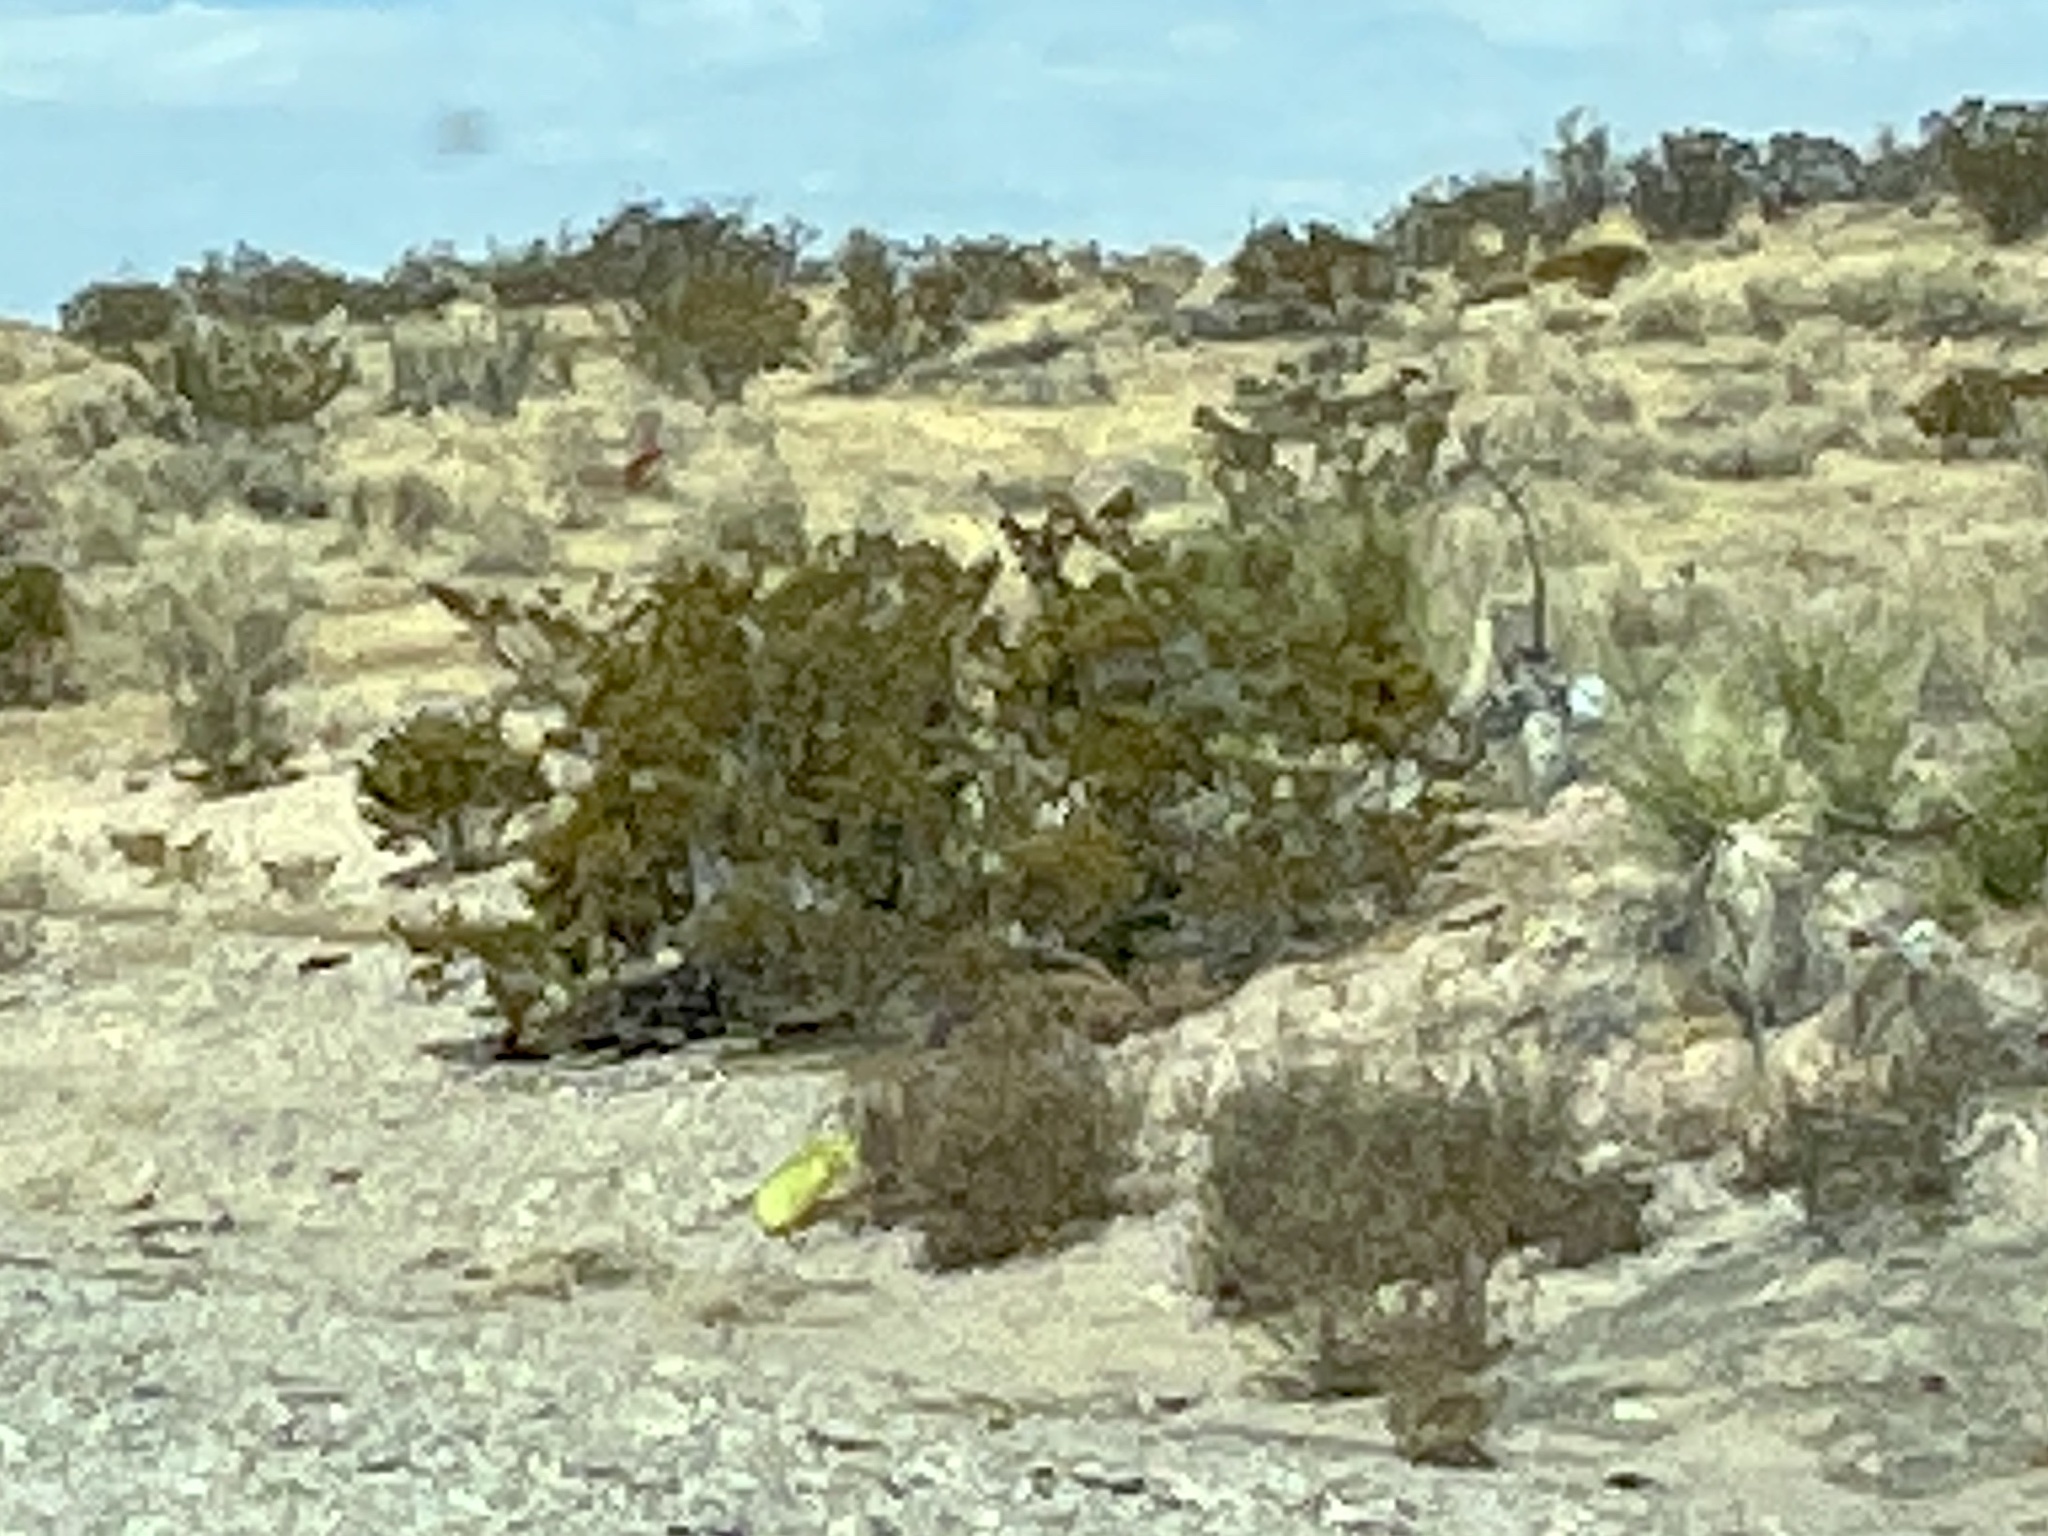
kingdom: Plantae
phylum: Tracheophyta
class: Magnoliopsida
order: Zygophyllales
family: Zygophyllaceae
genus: Larrea
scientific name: Larrea tridentata
